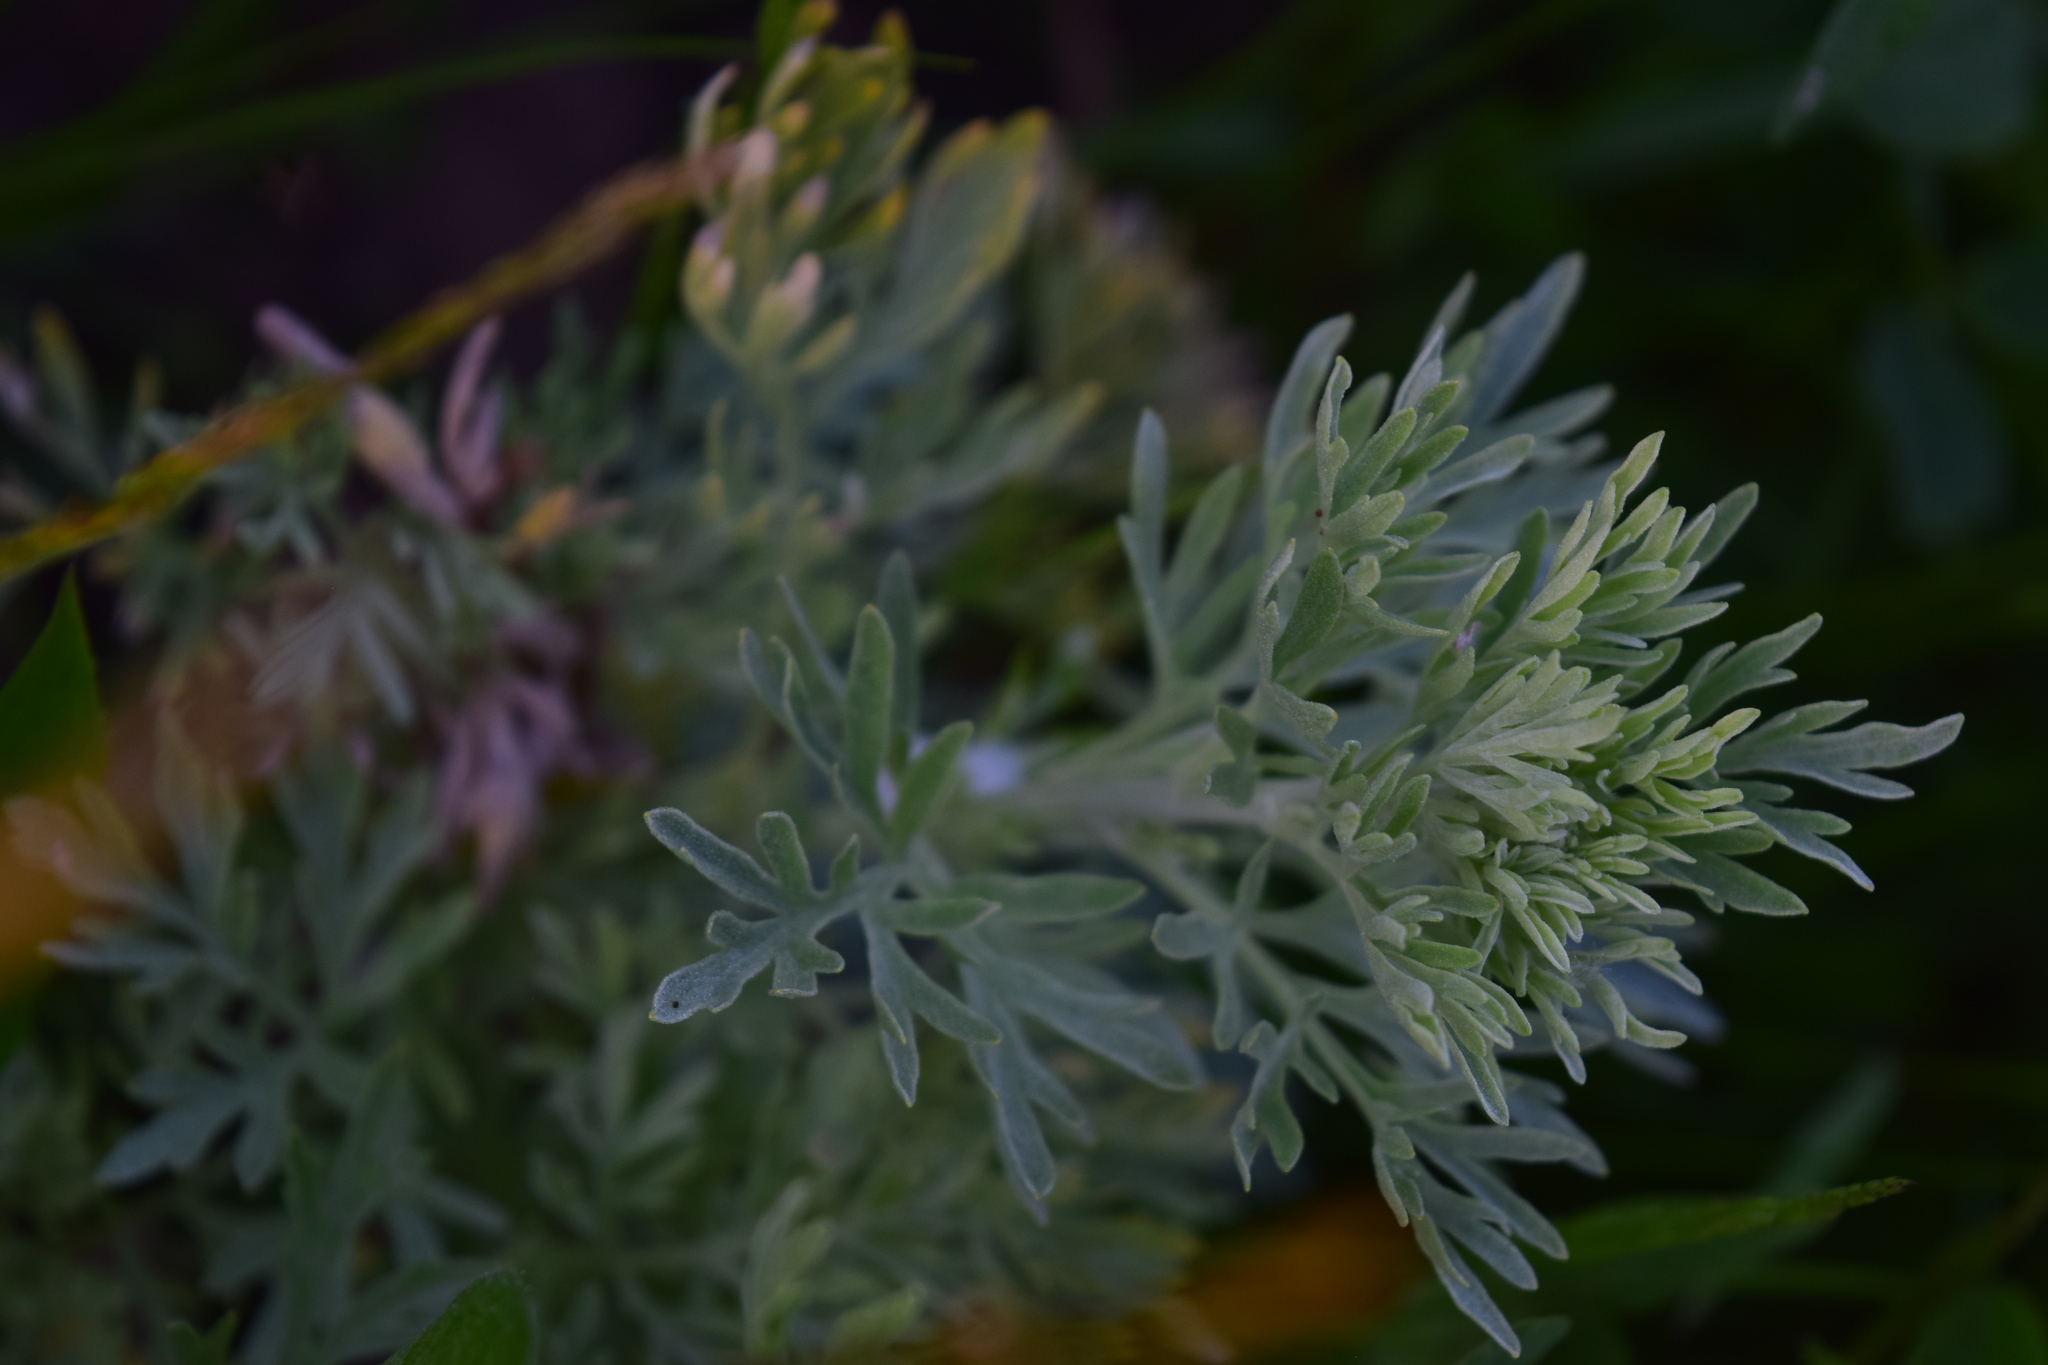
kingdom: Plantae
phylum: Tracheophyta
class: Magnoliopsida
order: Asterales
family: Asteraceae
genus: Artemisia
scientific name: Artemisia absinthium
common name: Wormwood
